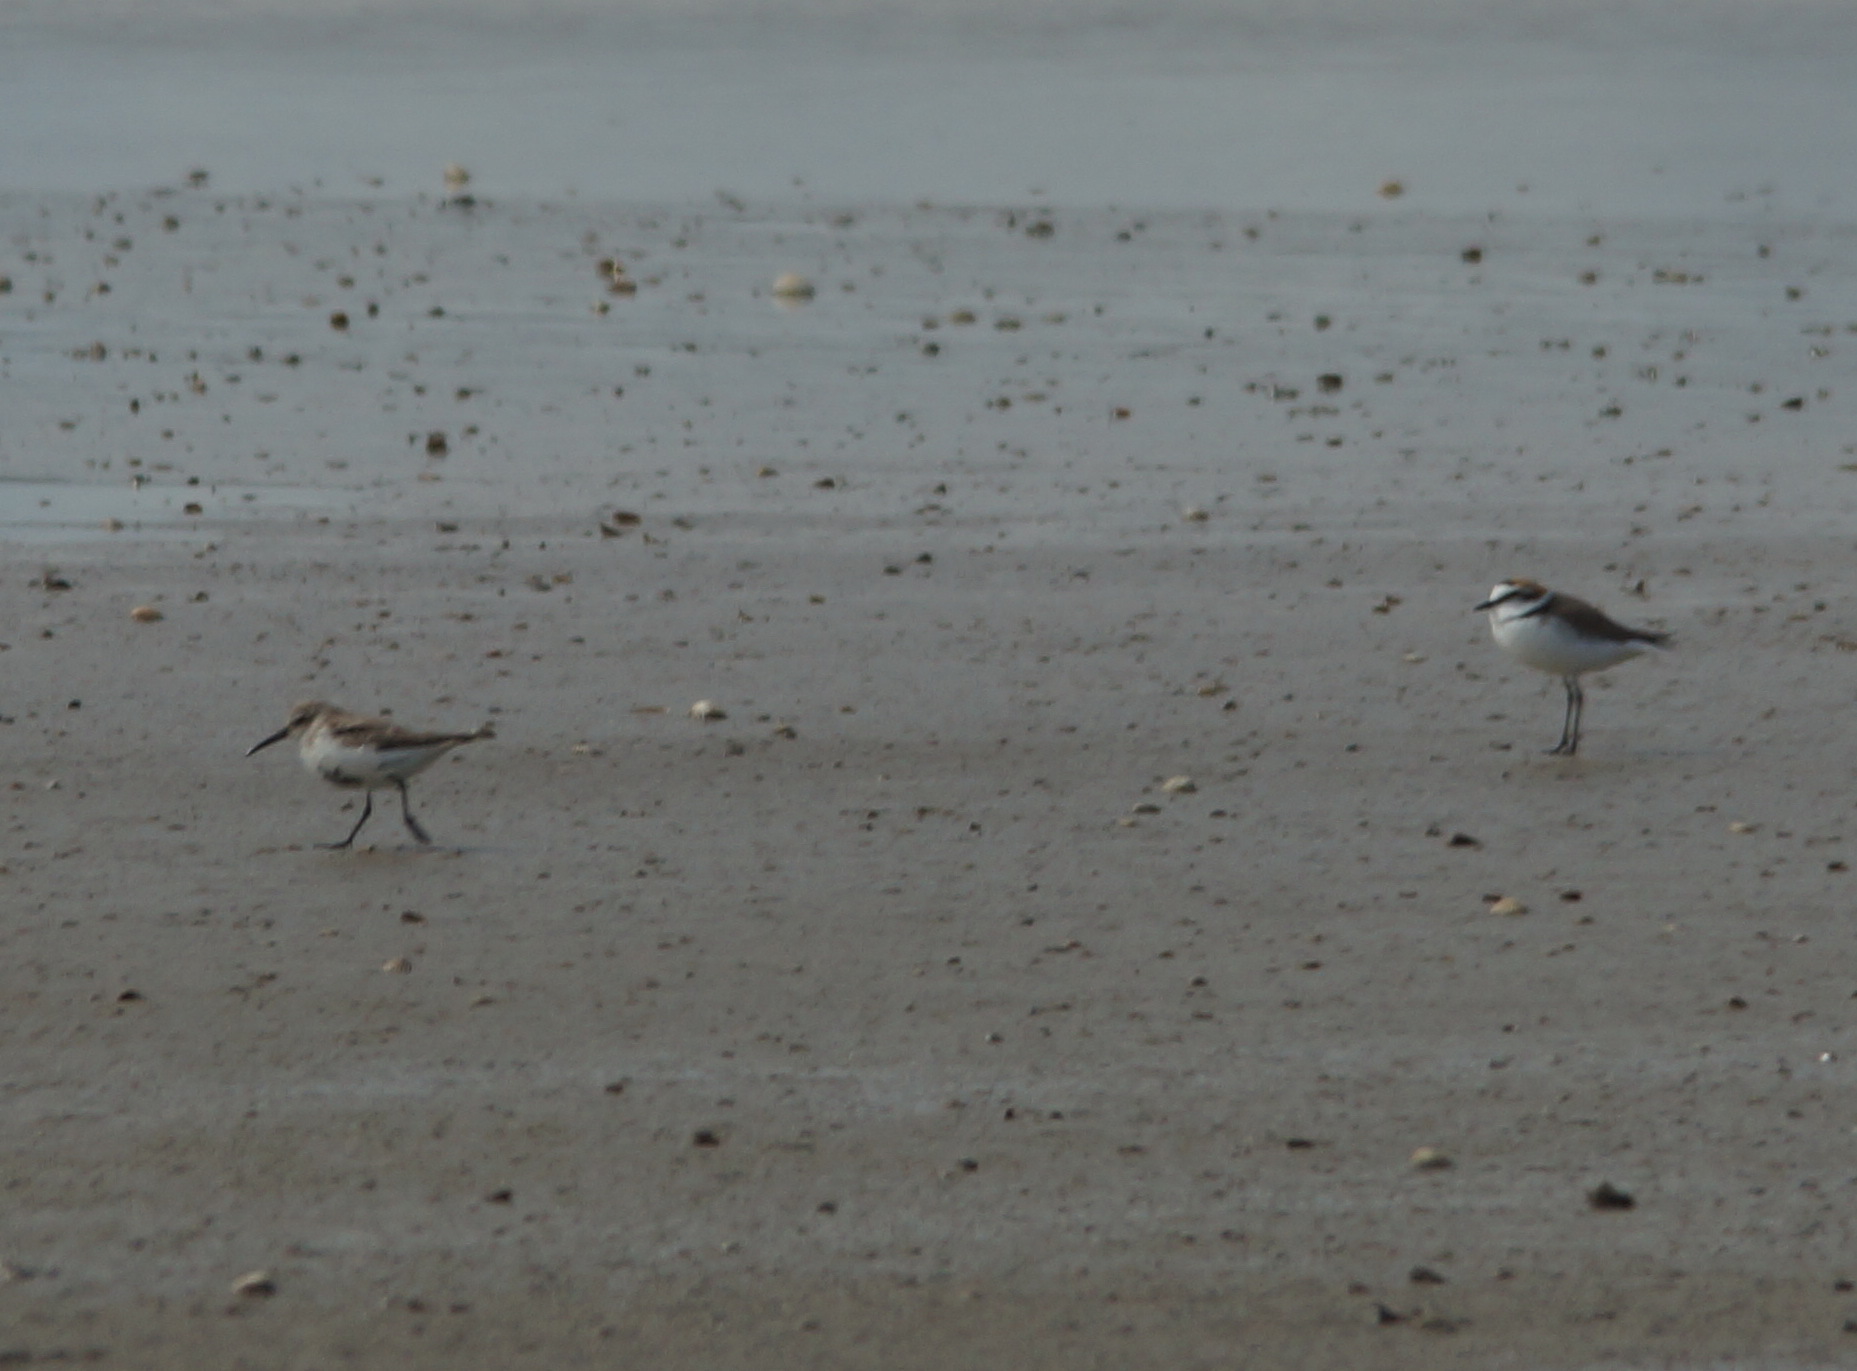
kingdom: Animalia
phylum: Chordata
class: Aves
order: Charadriiformes
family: Charadriidae
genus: Charadrius
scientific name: Charadrius alexandrinus
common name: Kentish plover
